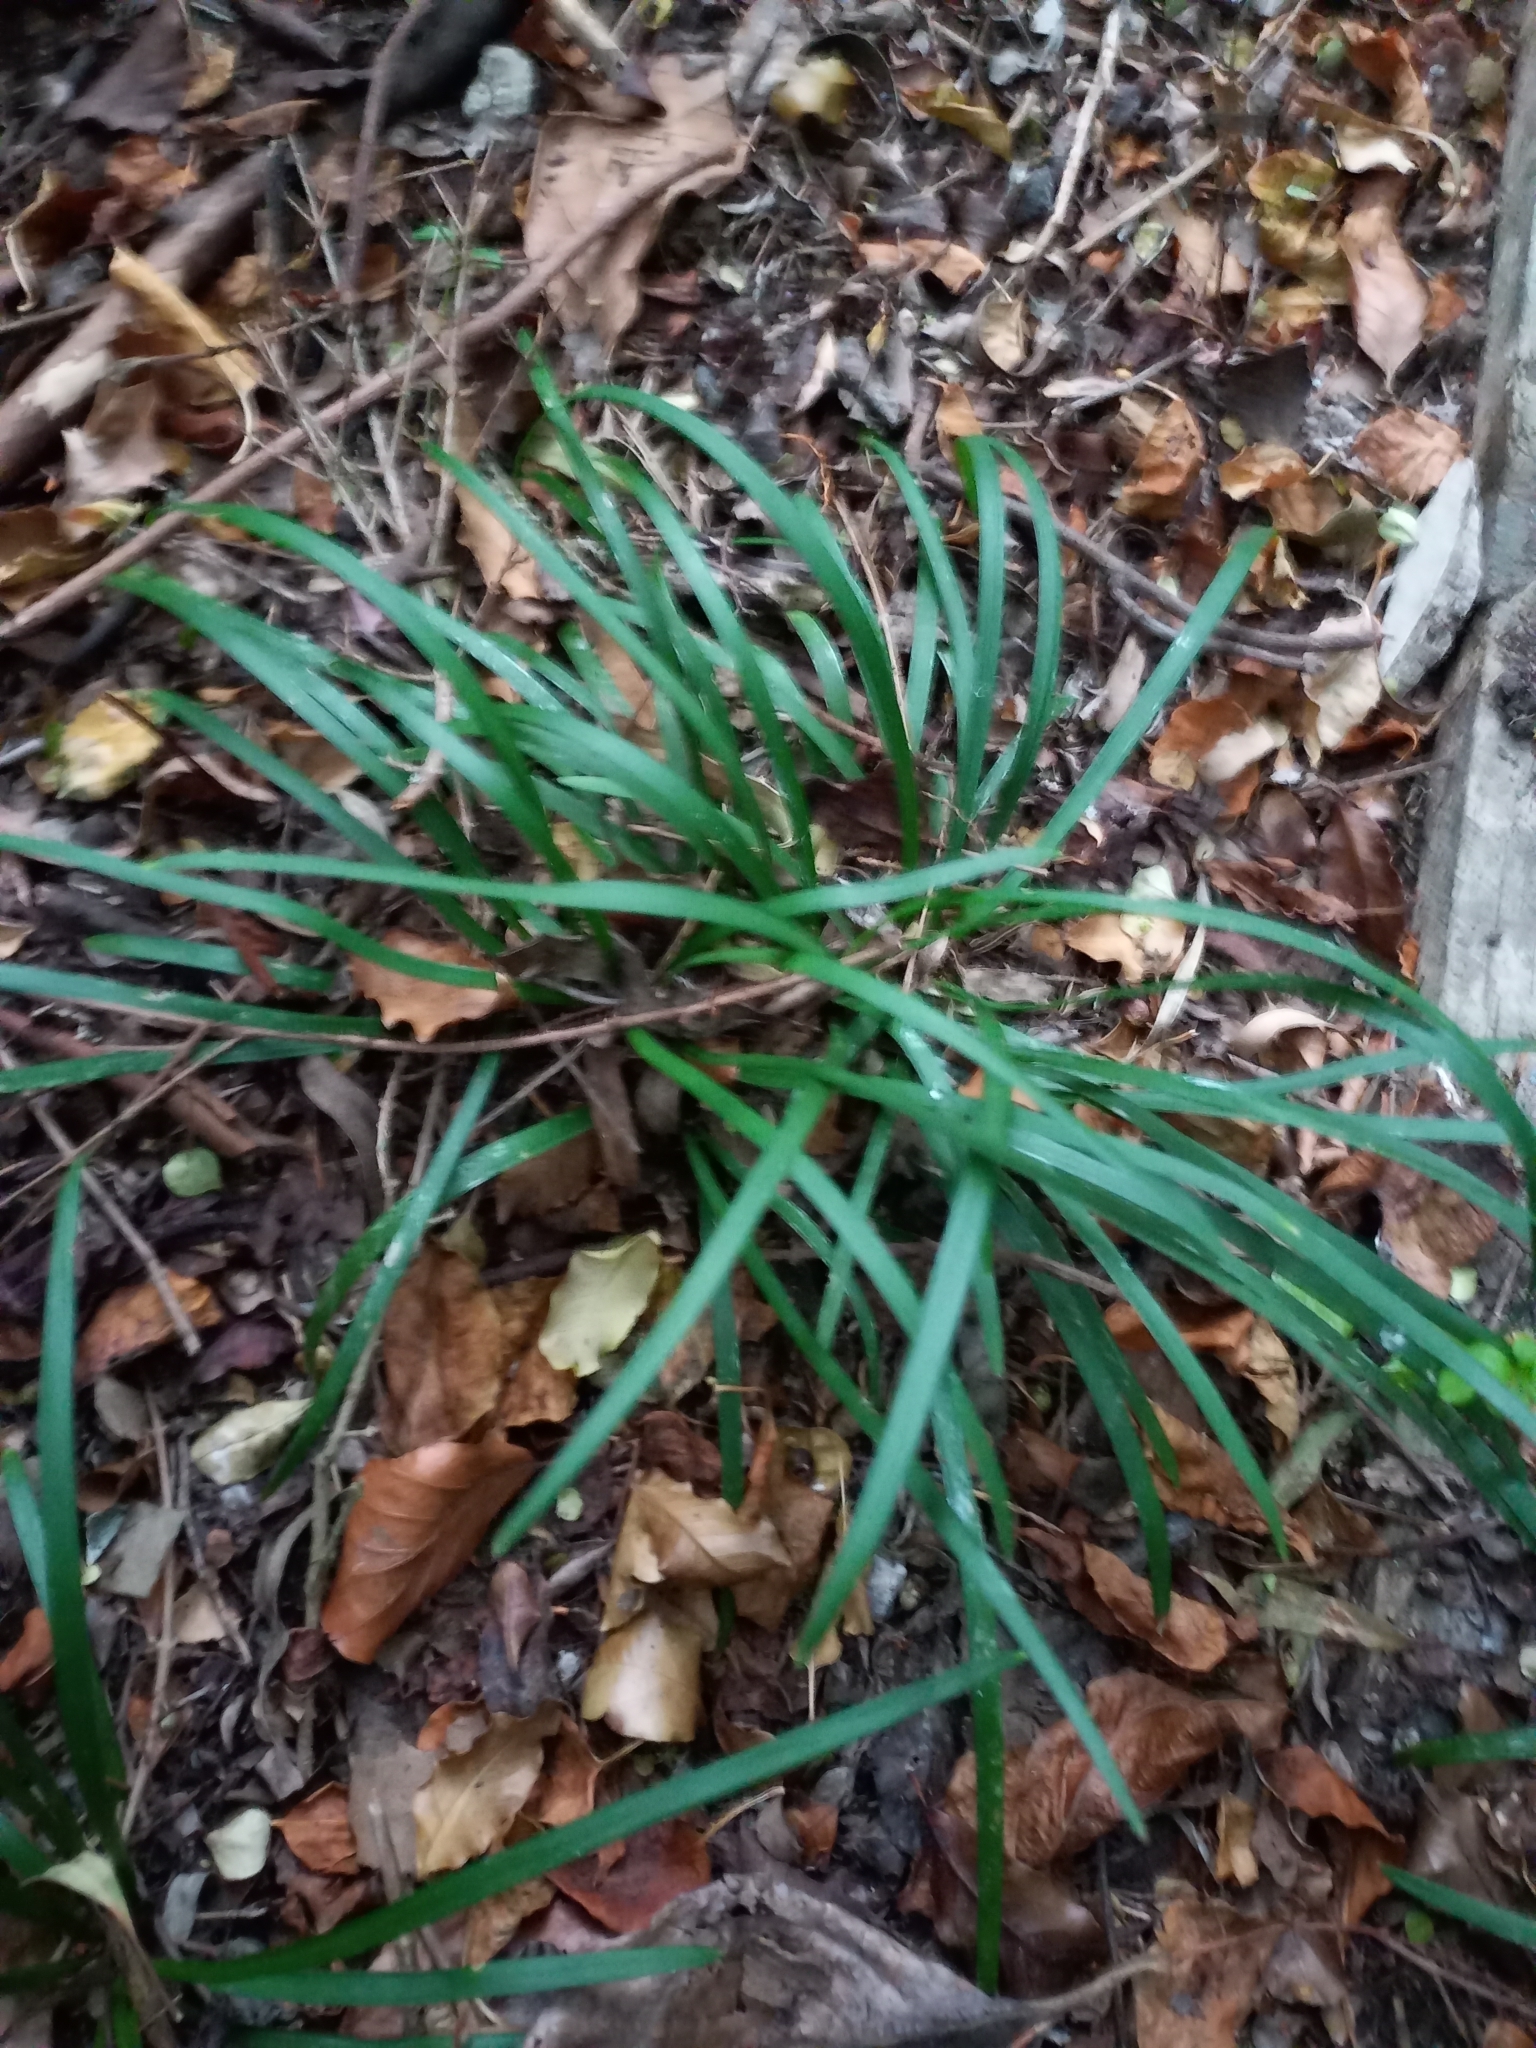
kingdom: Plantae
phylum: Tracheophyta
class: Liliopsida
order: Asparagales
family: Asparagaceae
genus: Ophiopogon
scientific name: Ophiopogon japonicus
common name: Dwarf lilyturf
